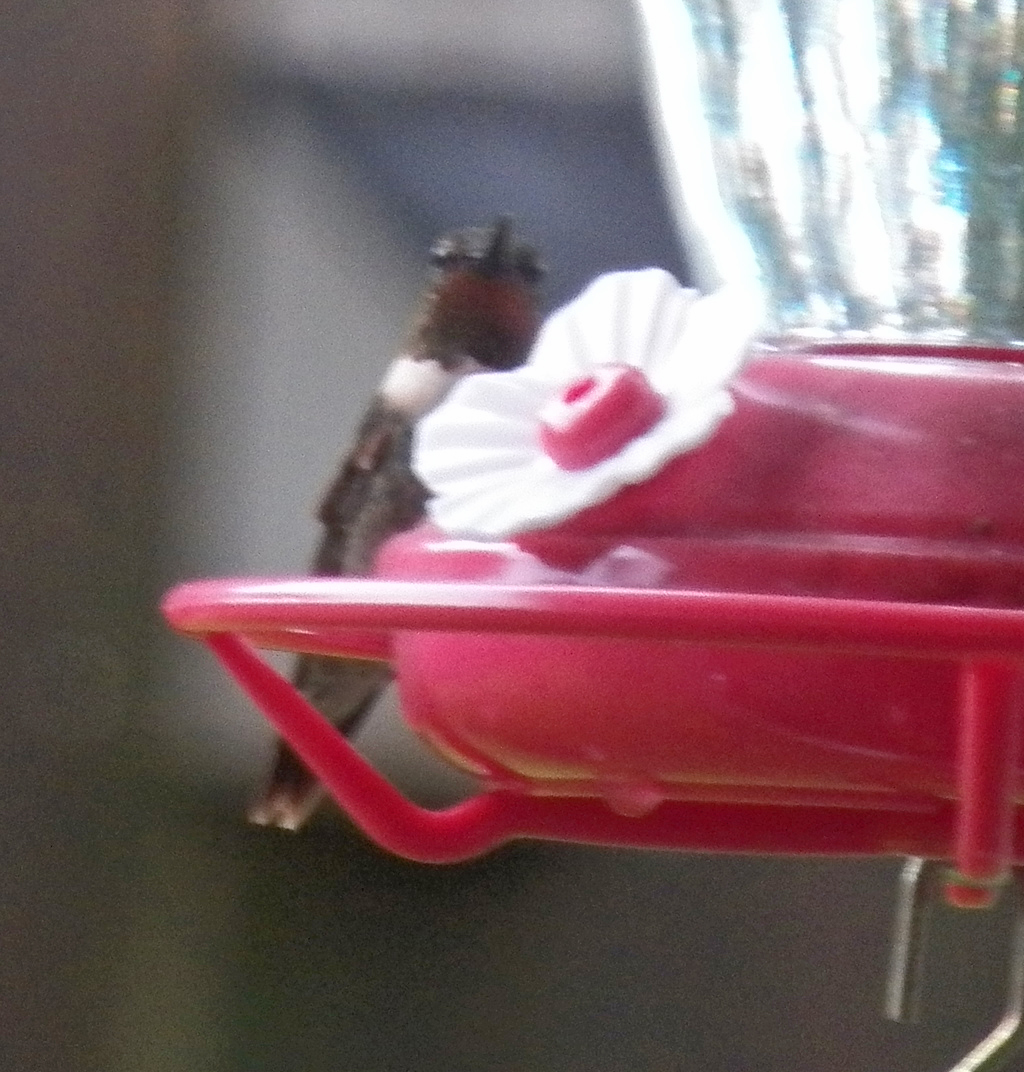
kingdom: Animalia
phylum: Chordata
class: Aves
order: Apodiformes
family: Trochilidae
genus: Archilochus
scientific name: Archilochus colubris
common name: Ruby-throated hummingbird
